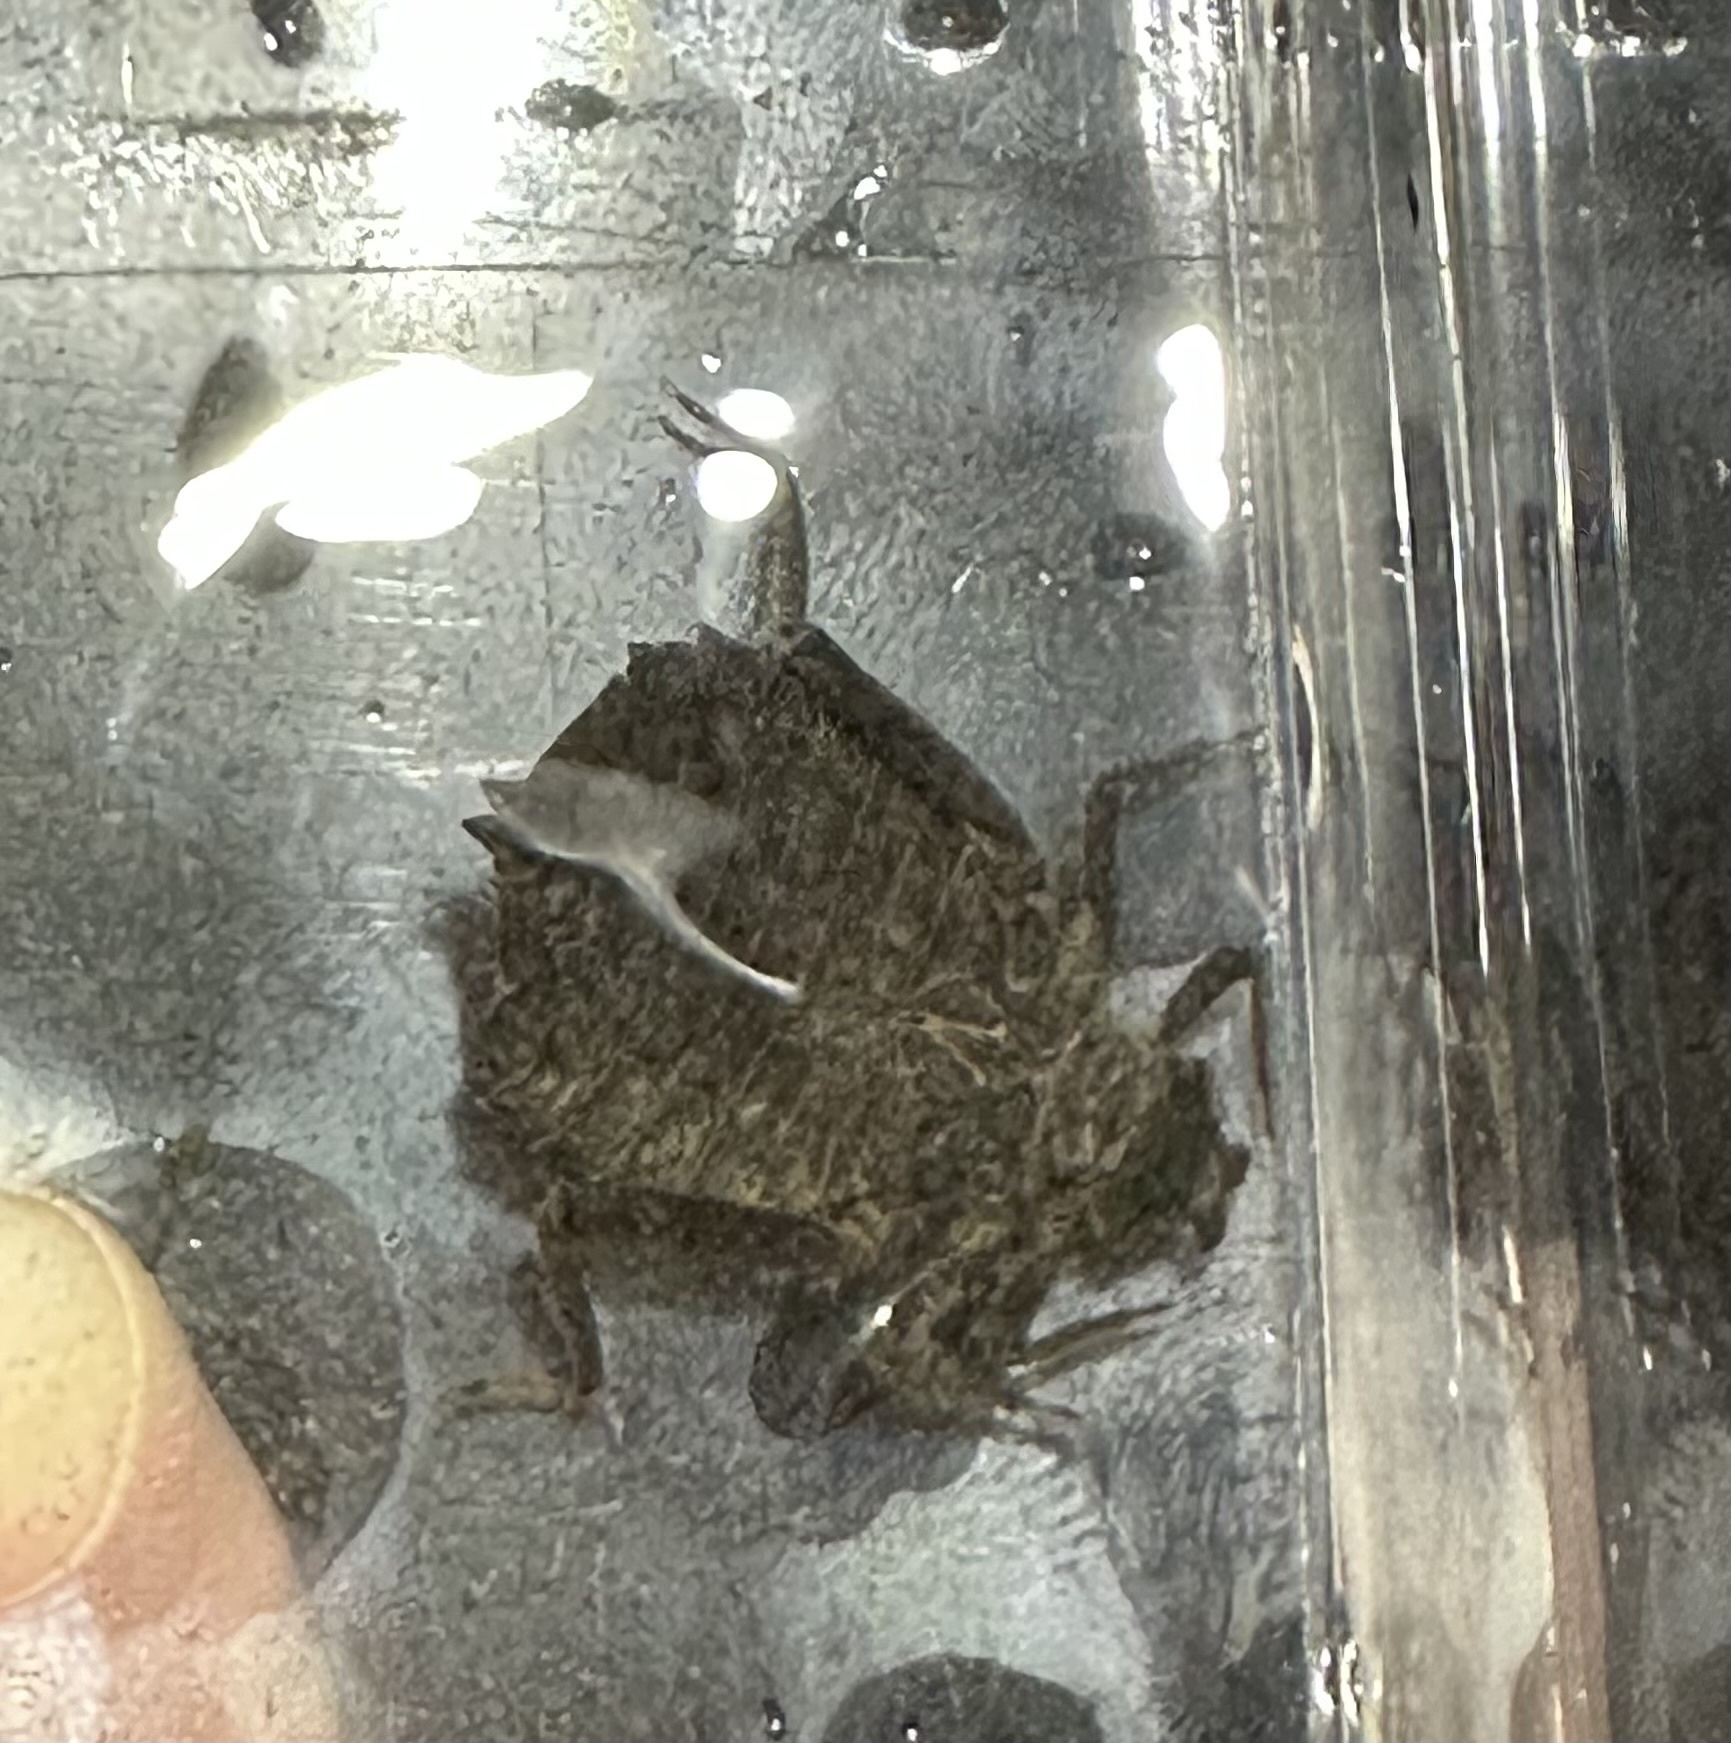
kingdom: Animalia
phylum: Arthropoda
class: Insecta
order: Odonata
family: Gomphidae
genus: Hagenius
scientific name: Hagenius brevistylus
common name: Dragonhunter
